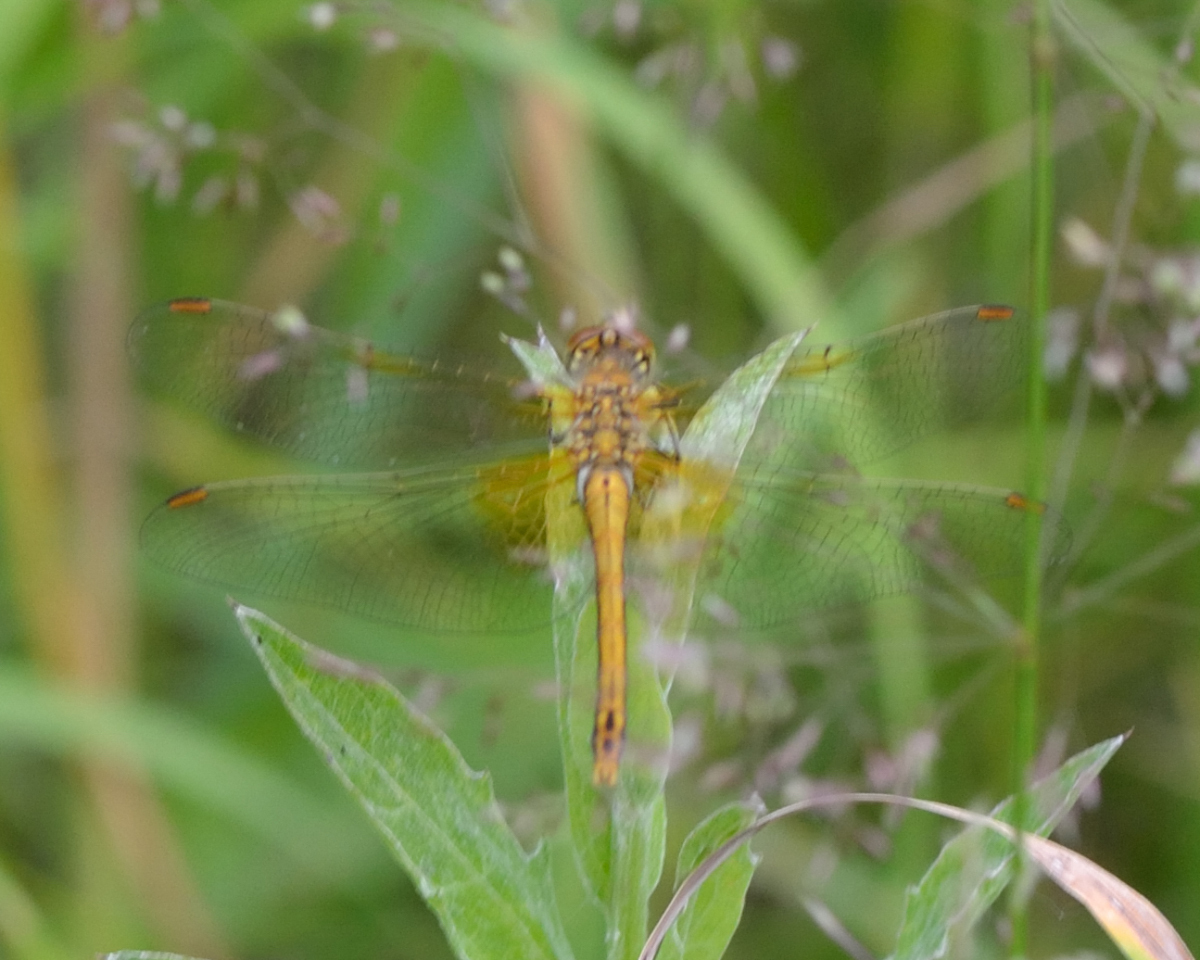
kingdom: Animalia
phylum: Arthropoda
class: Insecta
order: Odonata
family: Libellulidae
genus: Sympetrum
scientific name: Sympetrum flaveolum
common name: Yellow-winged darter
